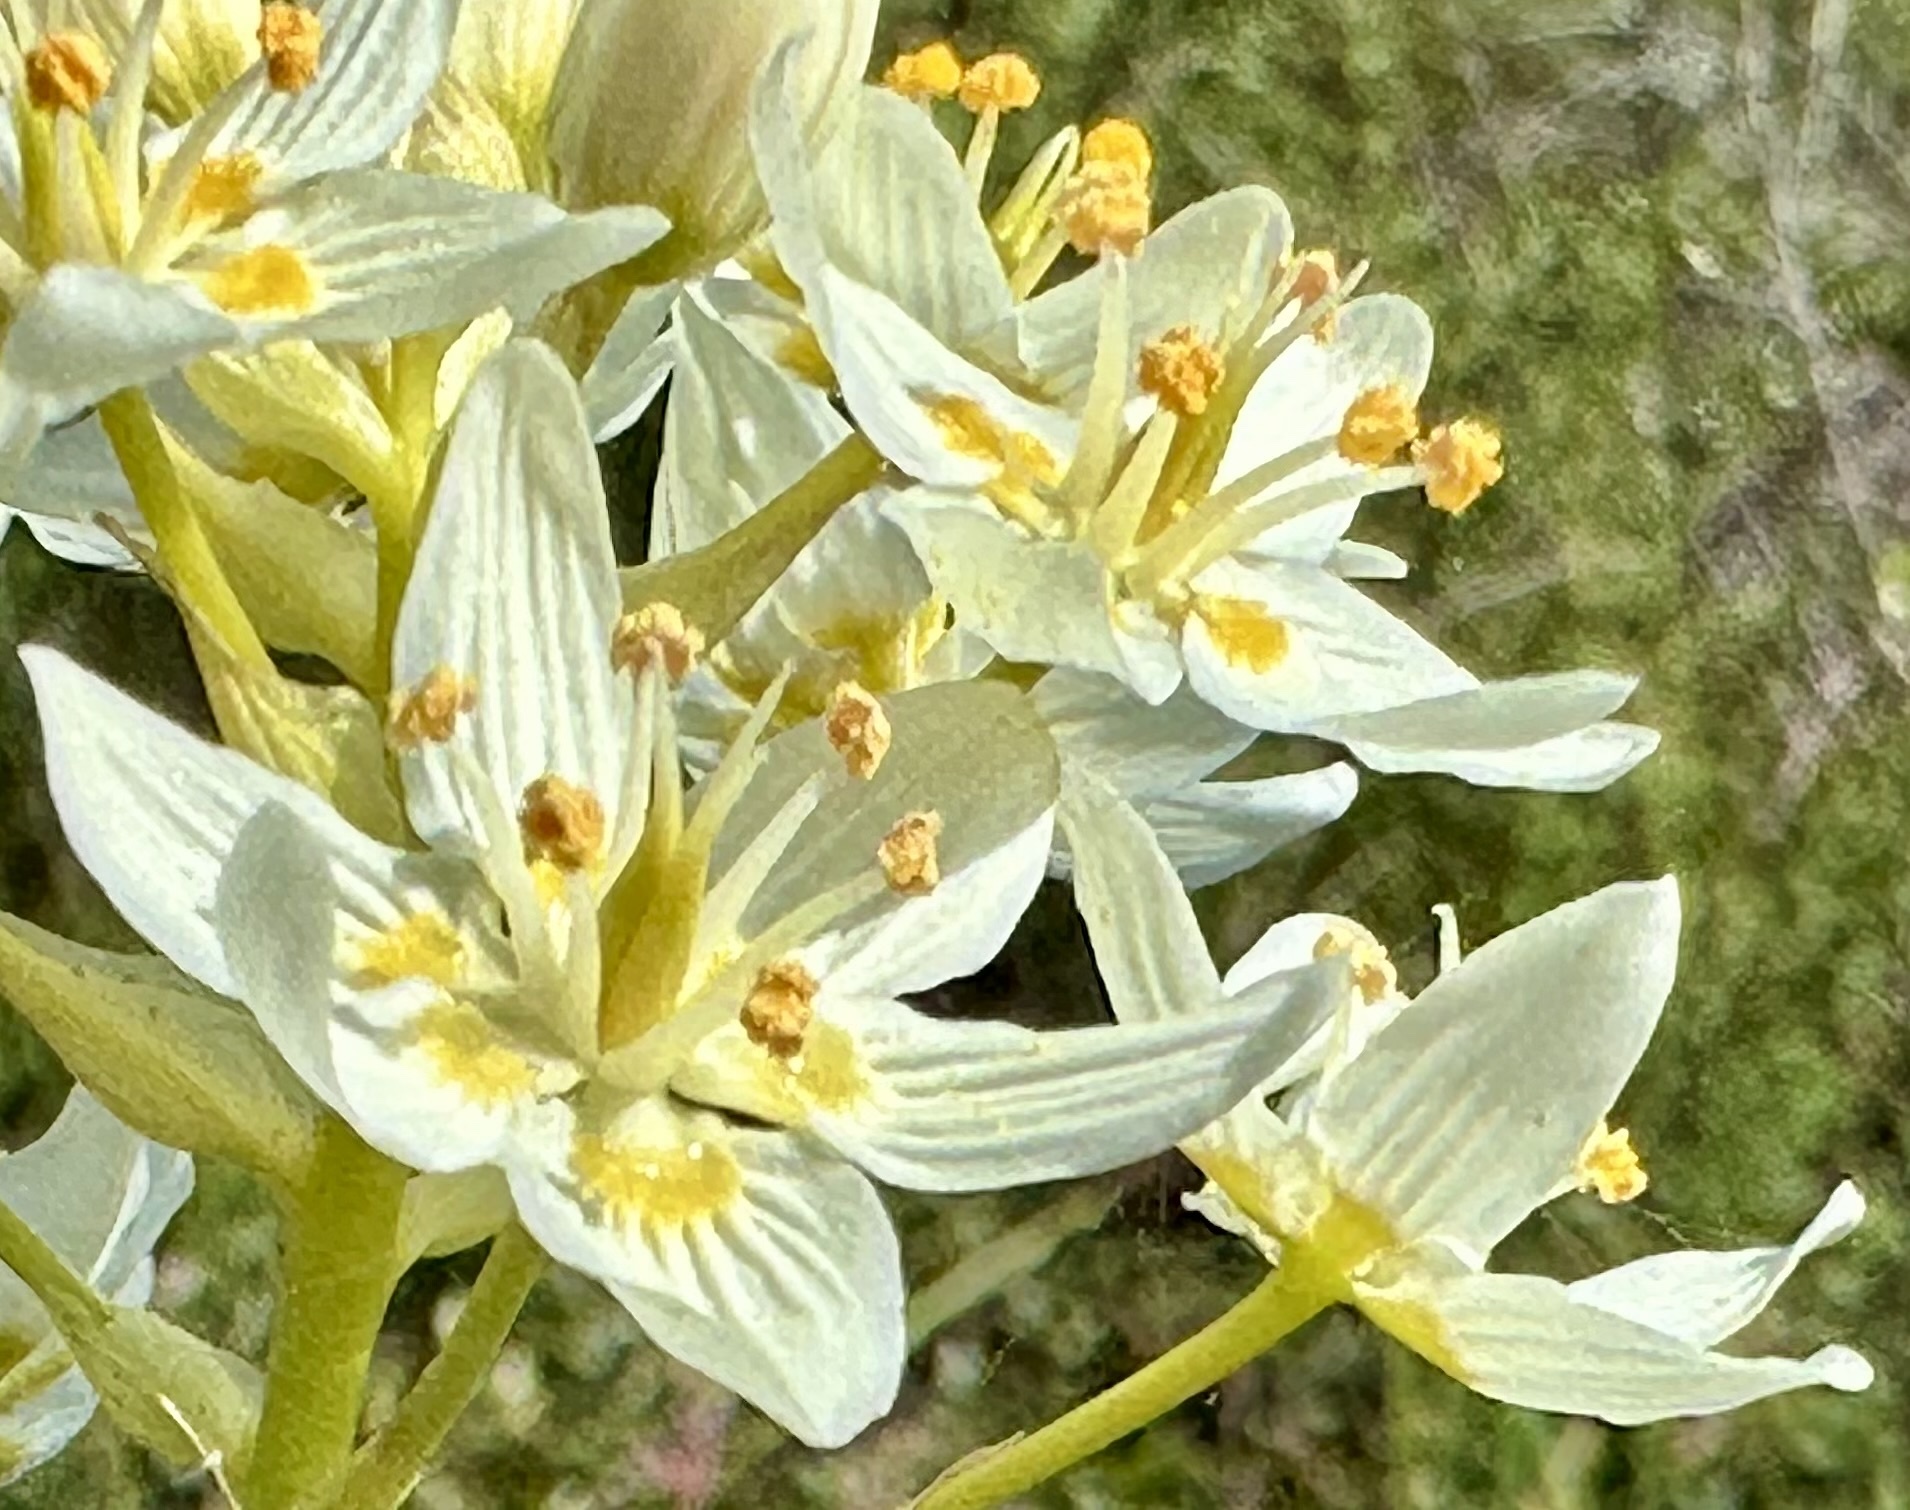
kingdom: Plantae
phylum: Tracheophyta
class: Liliopsida
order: Liliales
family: Melanthiaceae
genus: Toxicoscordion
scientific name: Toxicoscordion fremontii
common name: Fremont's death camas
